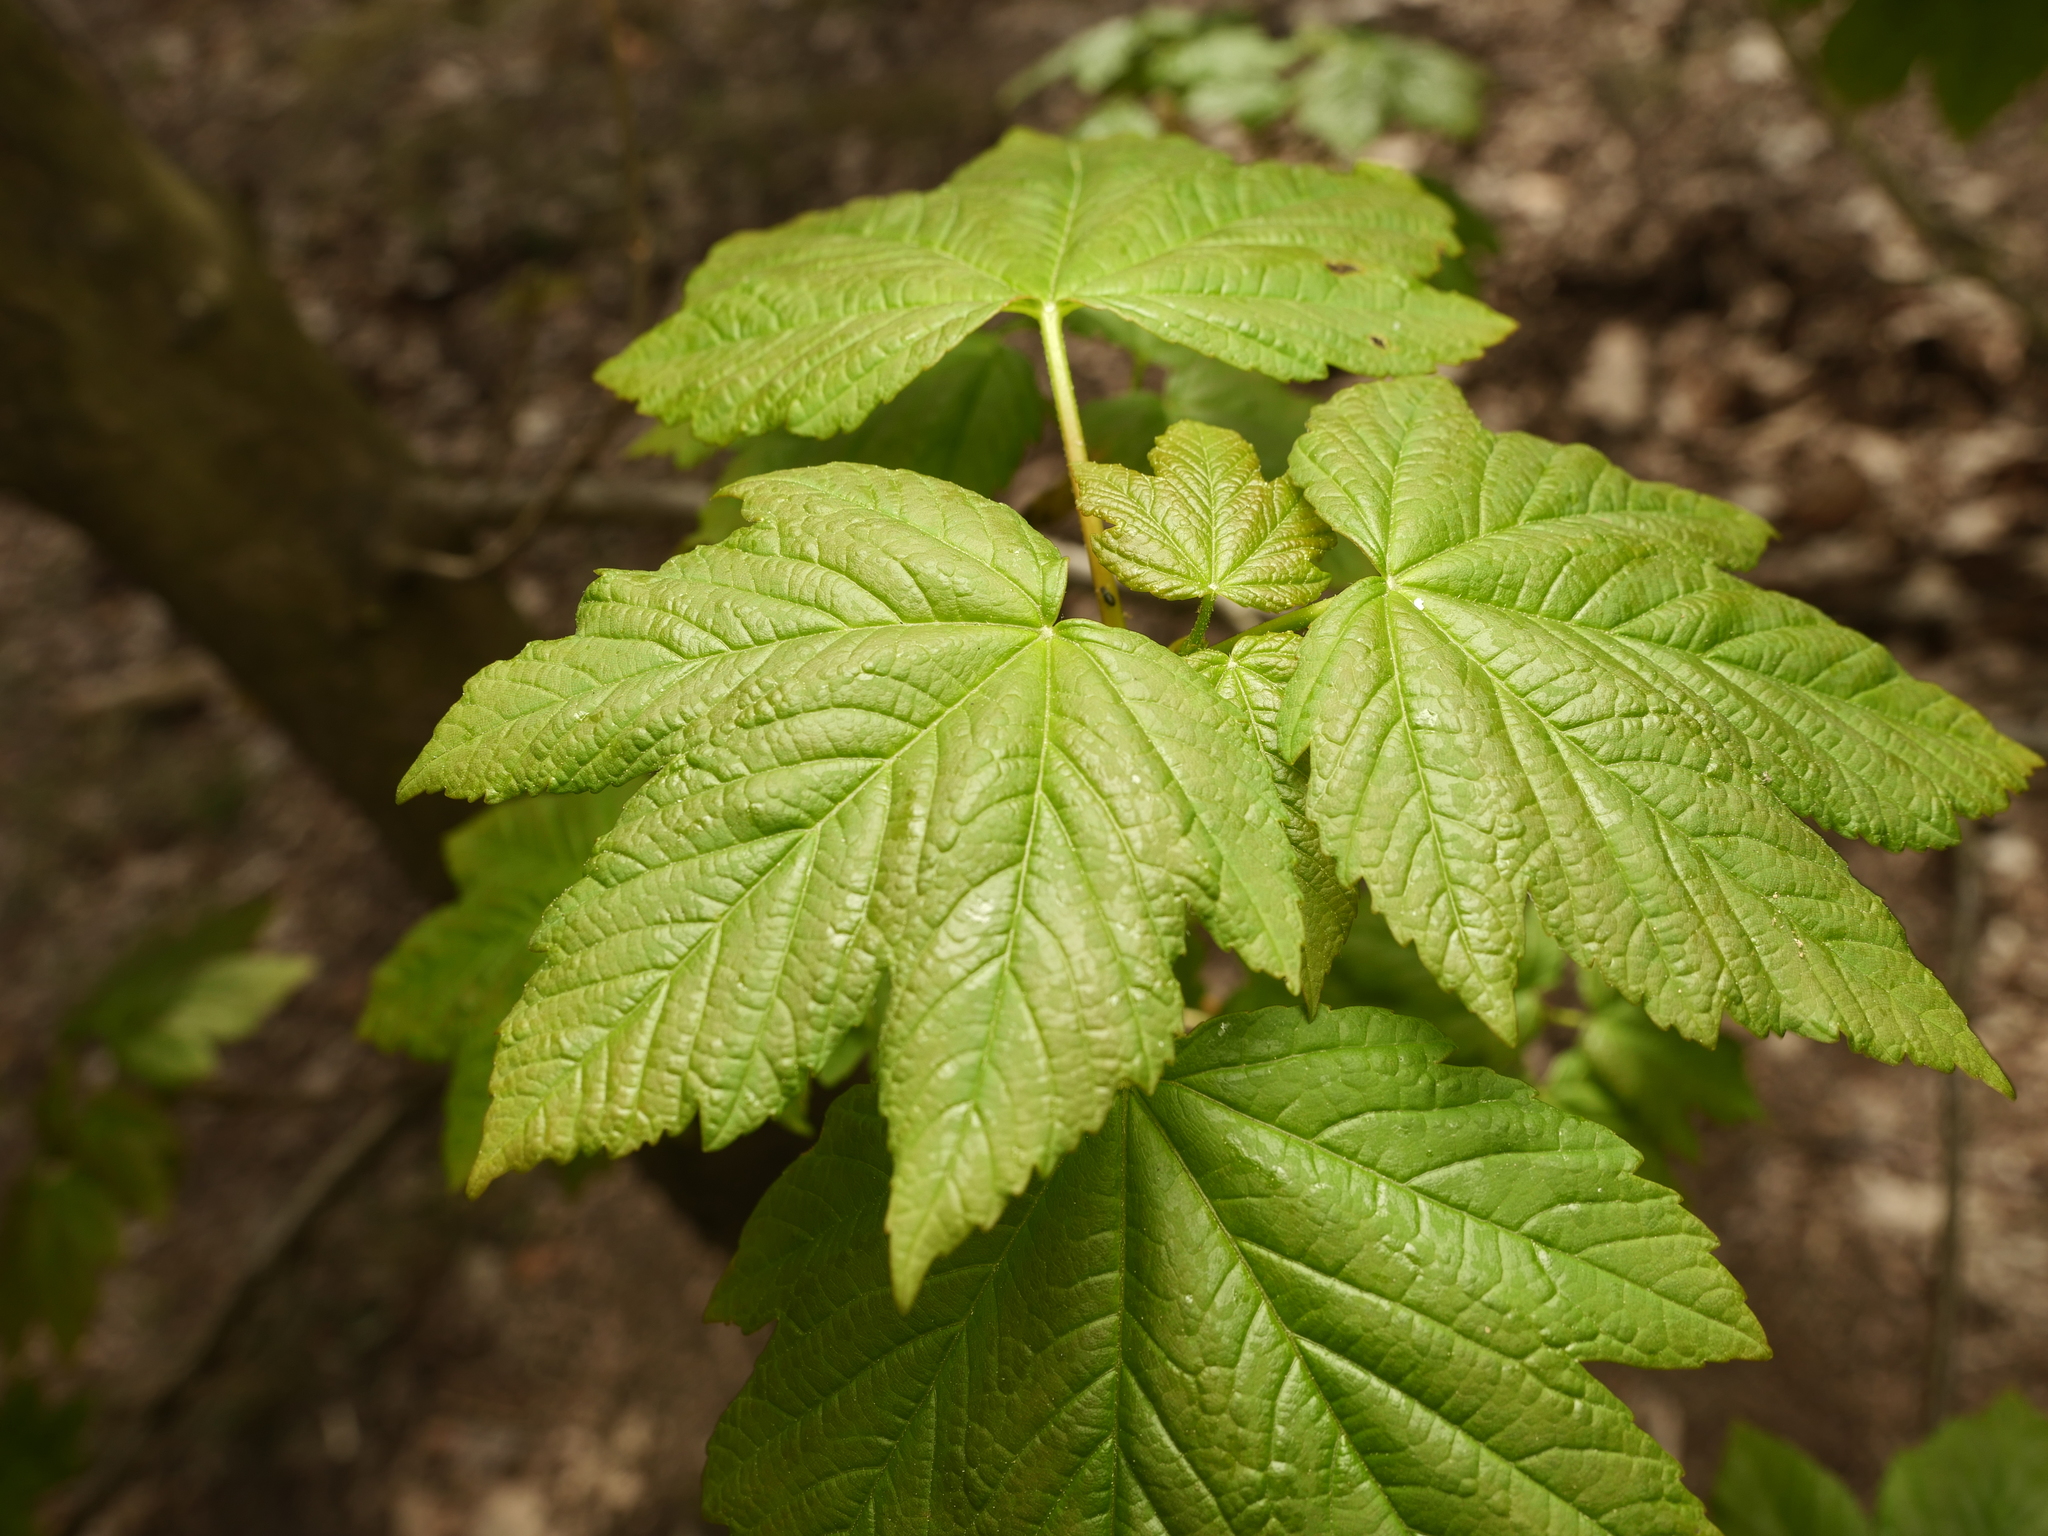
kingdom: Plantae
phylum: Tracheophyta
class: Magnoliopsida
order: Sapindales
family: Sapindaceae
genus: Acer
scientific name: Acer pseudoplatanus
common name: Sycamore
